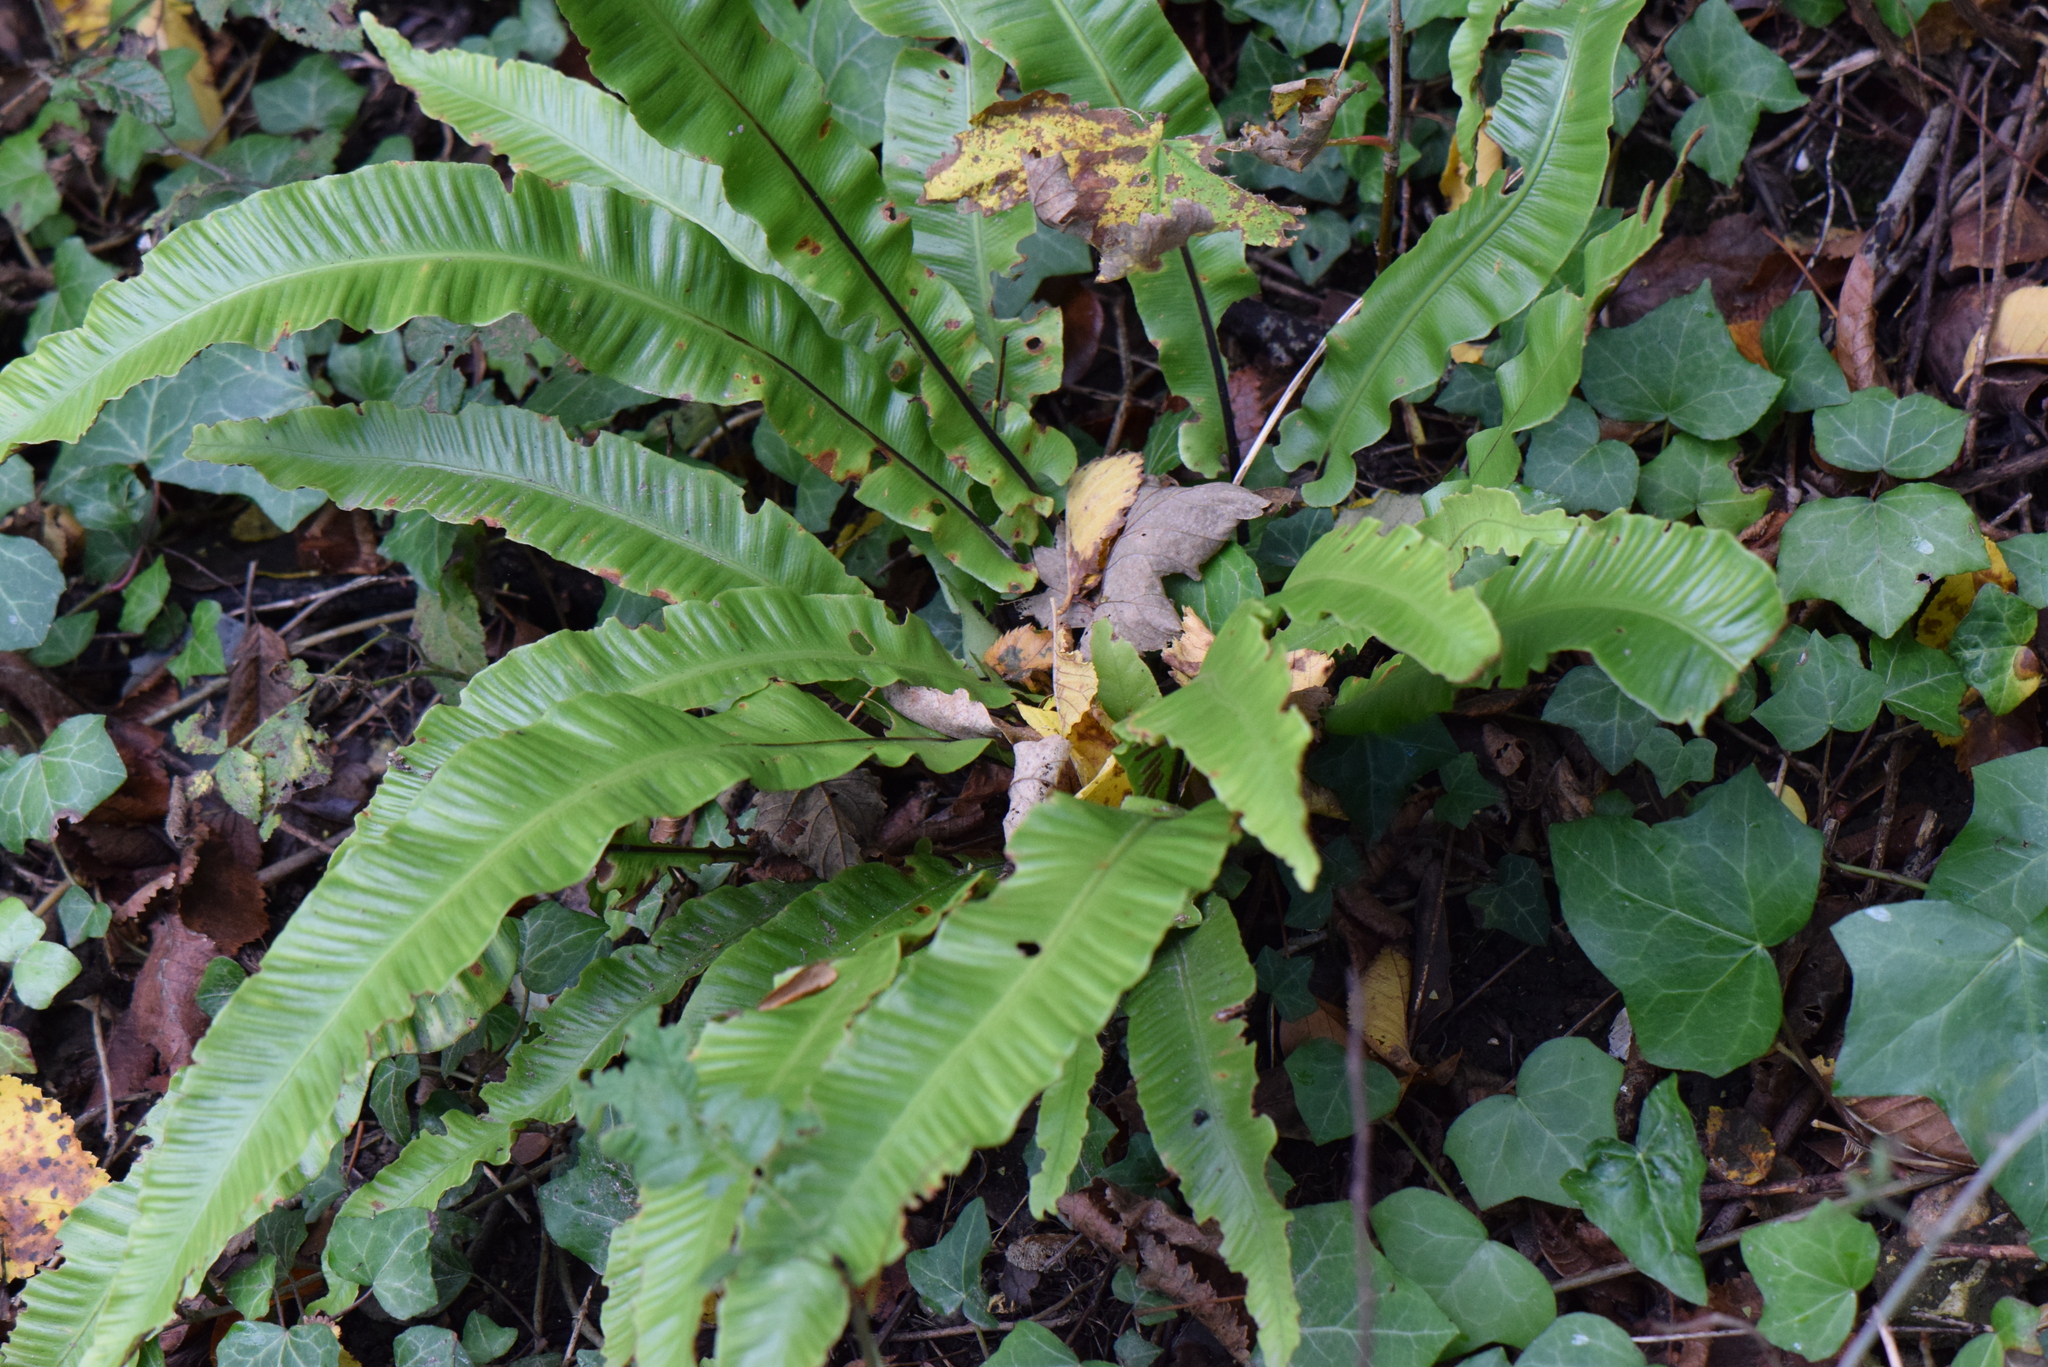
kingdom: Plantae
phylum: Tracheophyta
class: Polypodiopsida
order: Polypodiales
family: Aspleniaceae
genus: Asplenium
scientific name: Asplenium scolopendrium
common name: Hart's-tongue fern
